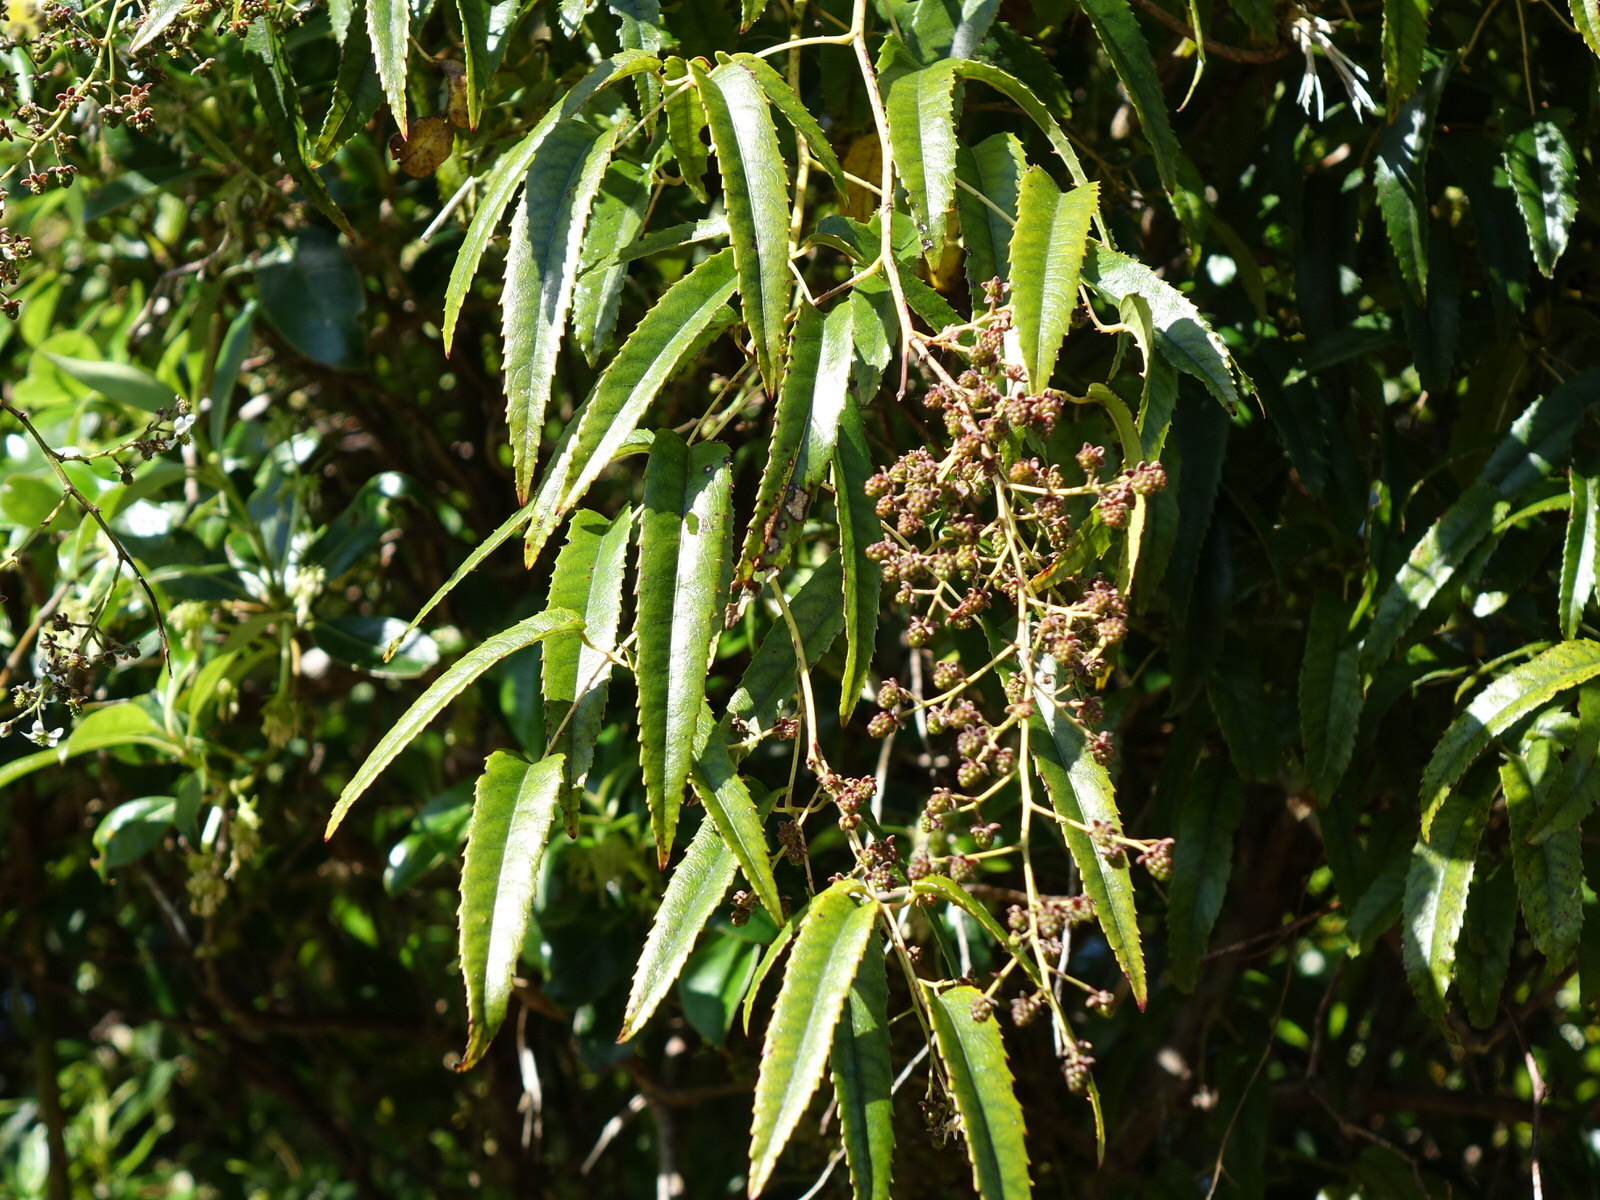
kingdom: Plantae
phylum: Tracheophyta
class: Magnoliopsida
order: Rosales
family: Rosaceae
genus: Rubus
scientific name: Rubus cissoides
